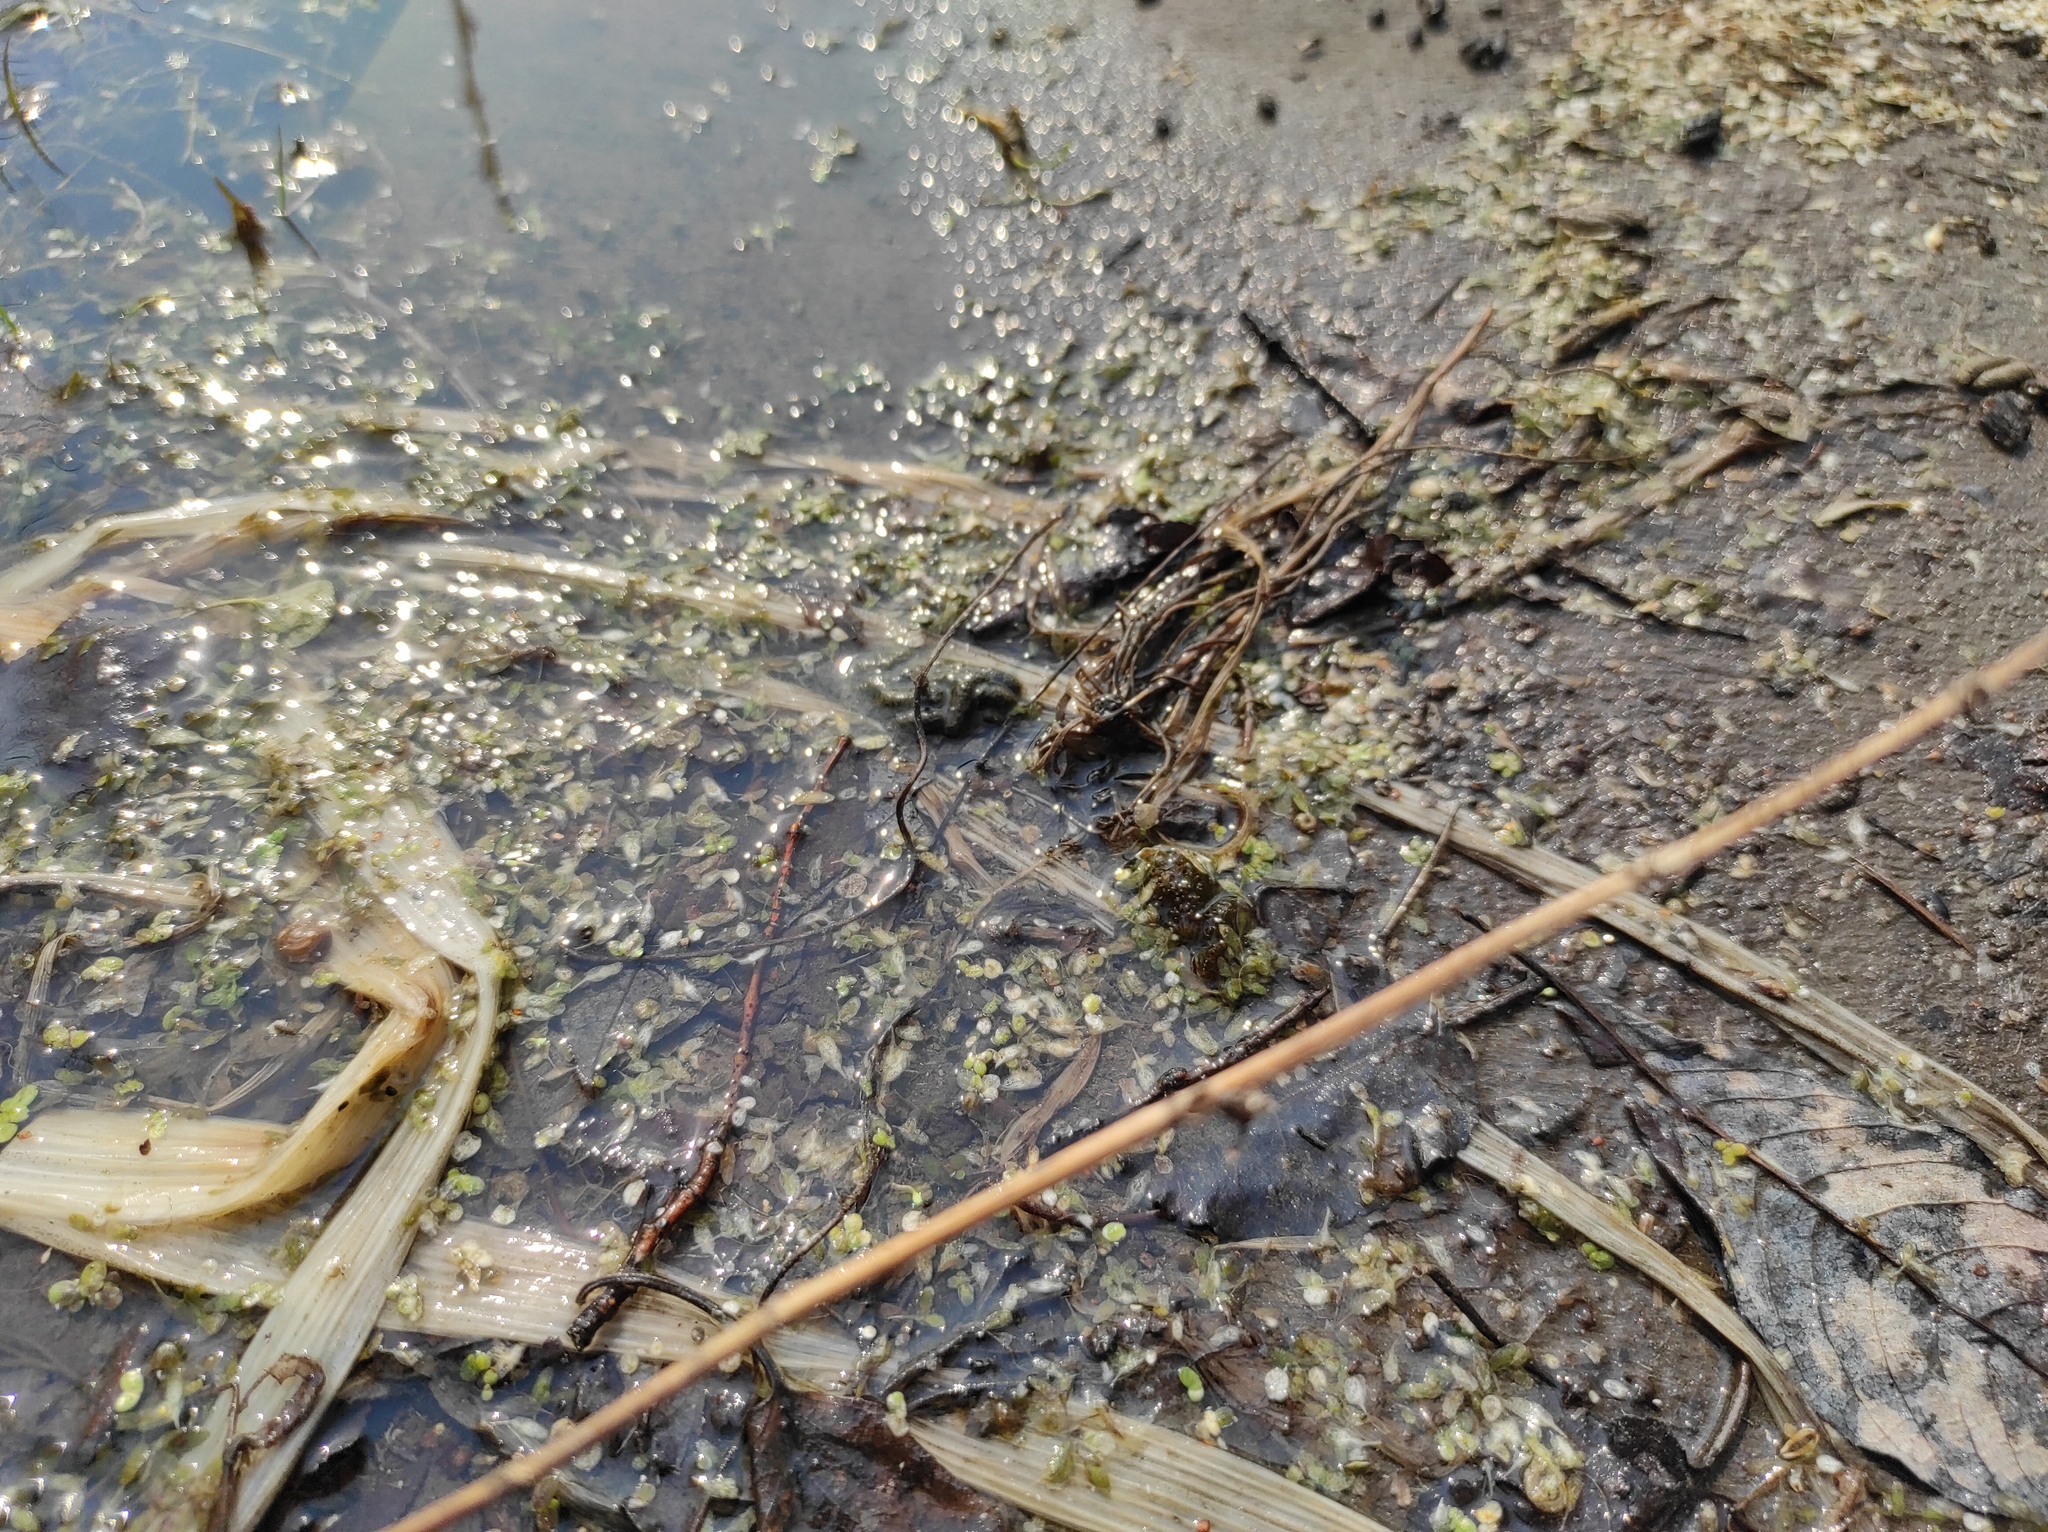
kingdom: Plantae
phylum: Tracheophyta
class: Liliopsida
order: Alismatales
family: Araceae
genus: Lemna
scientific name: Lemna trisulca
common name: Ivy-leaved duckweed
